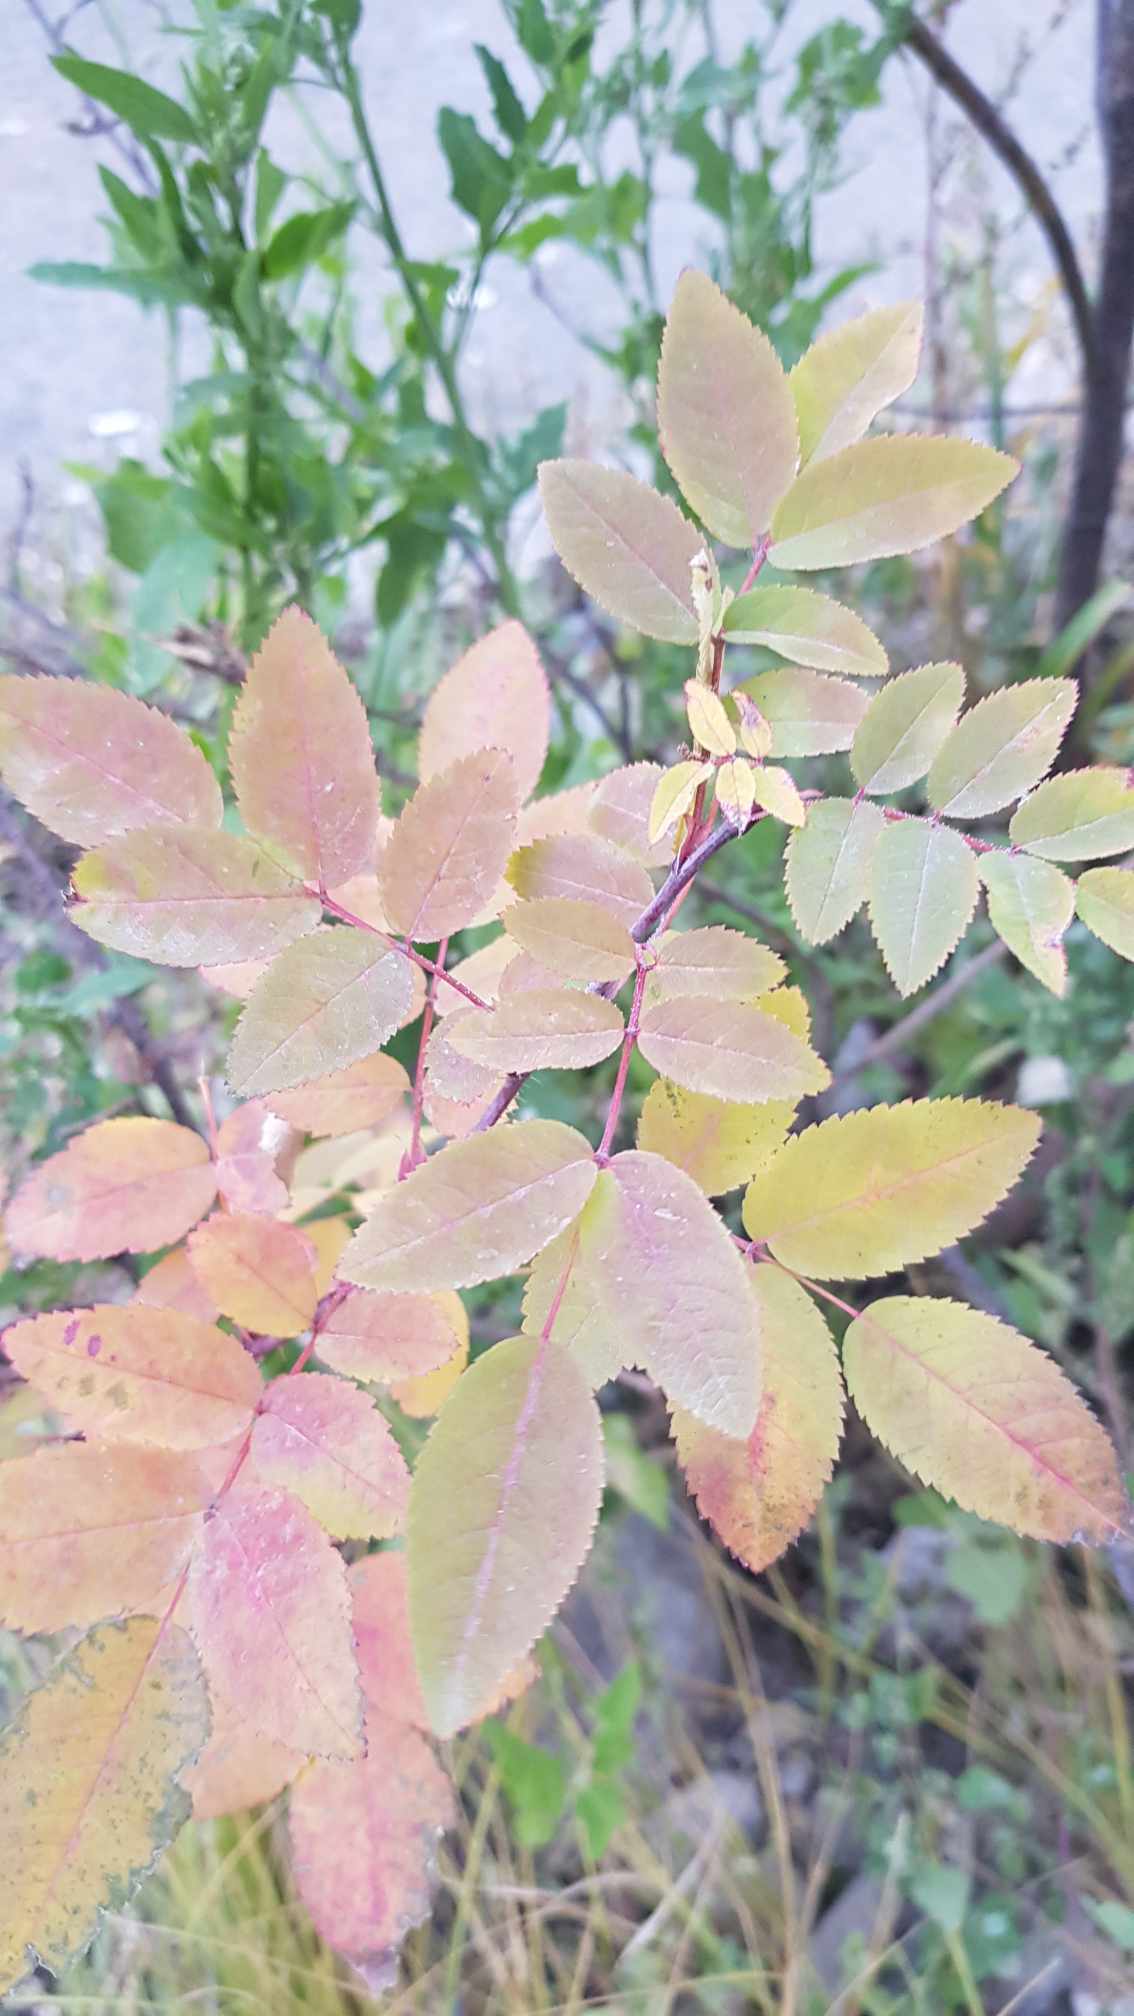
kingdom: Plantae
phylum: Tracheophyta
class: Magnoliopsida
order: Rosales
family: Rosaceae
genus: Rosa
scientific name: Rosa acicularis
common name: Prickly rose
